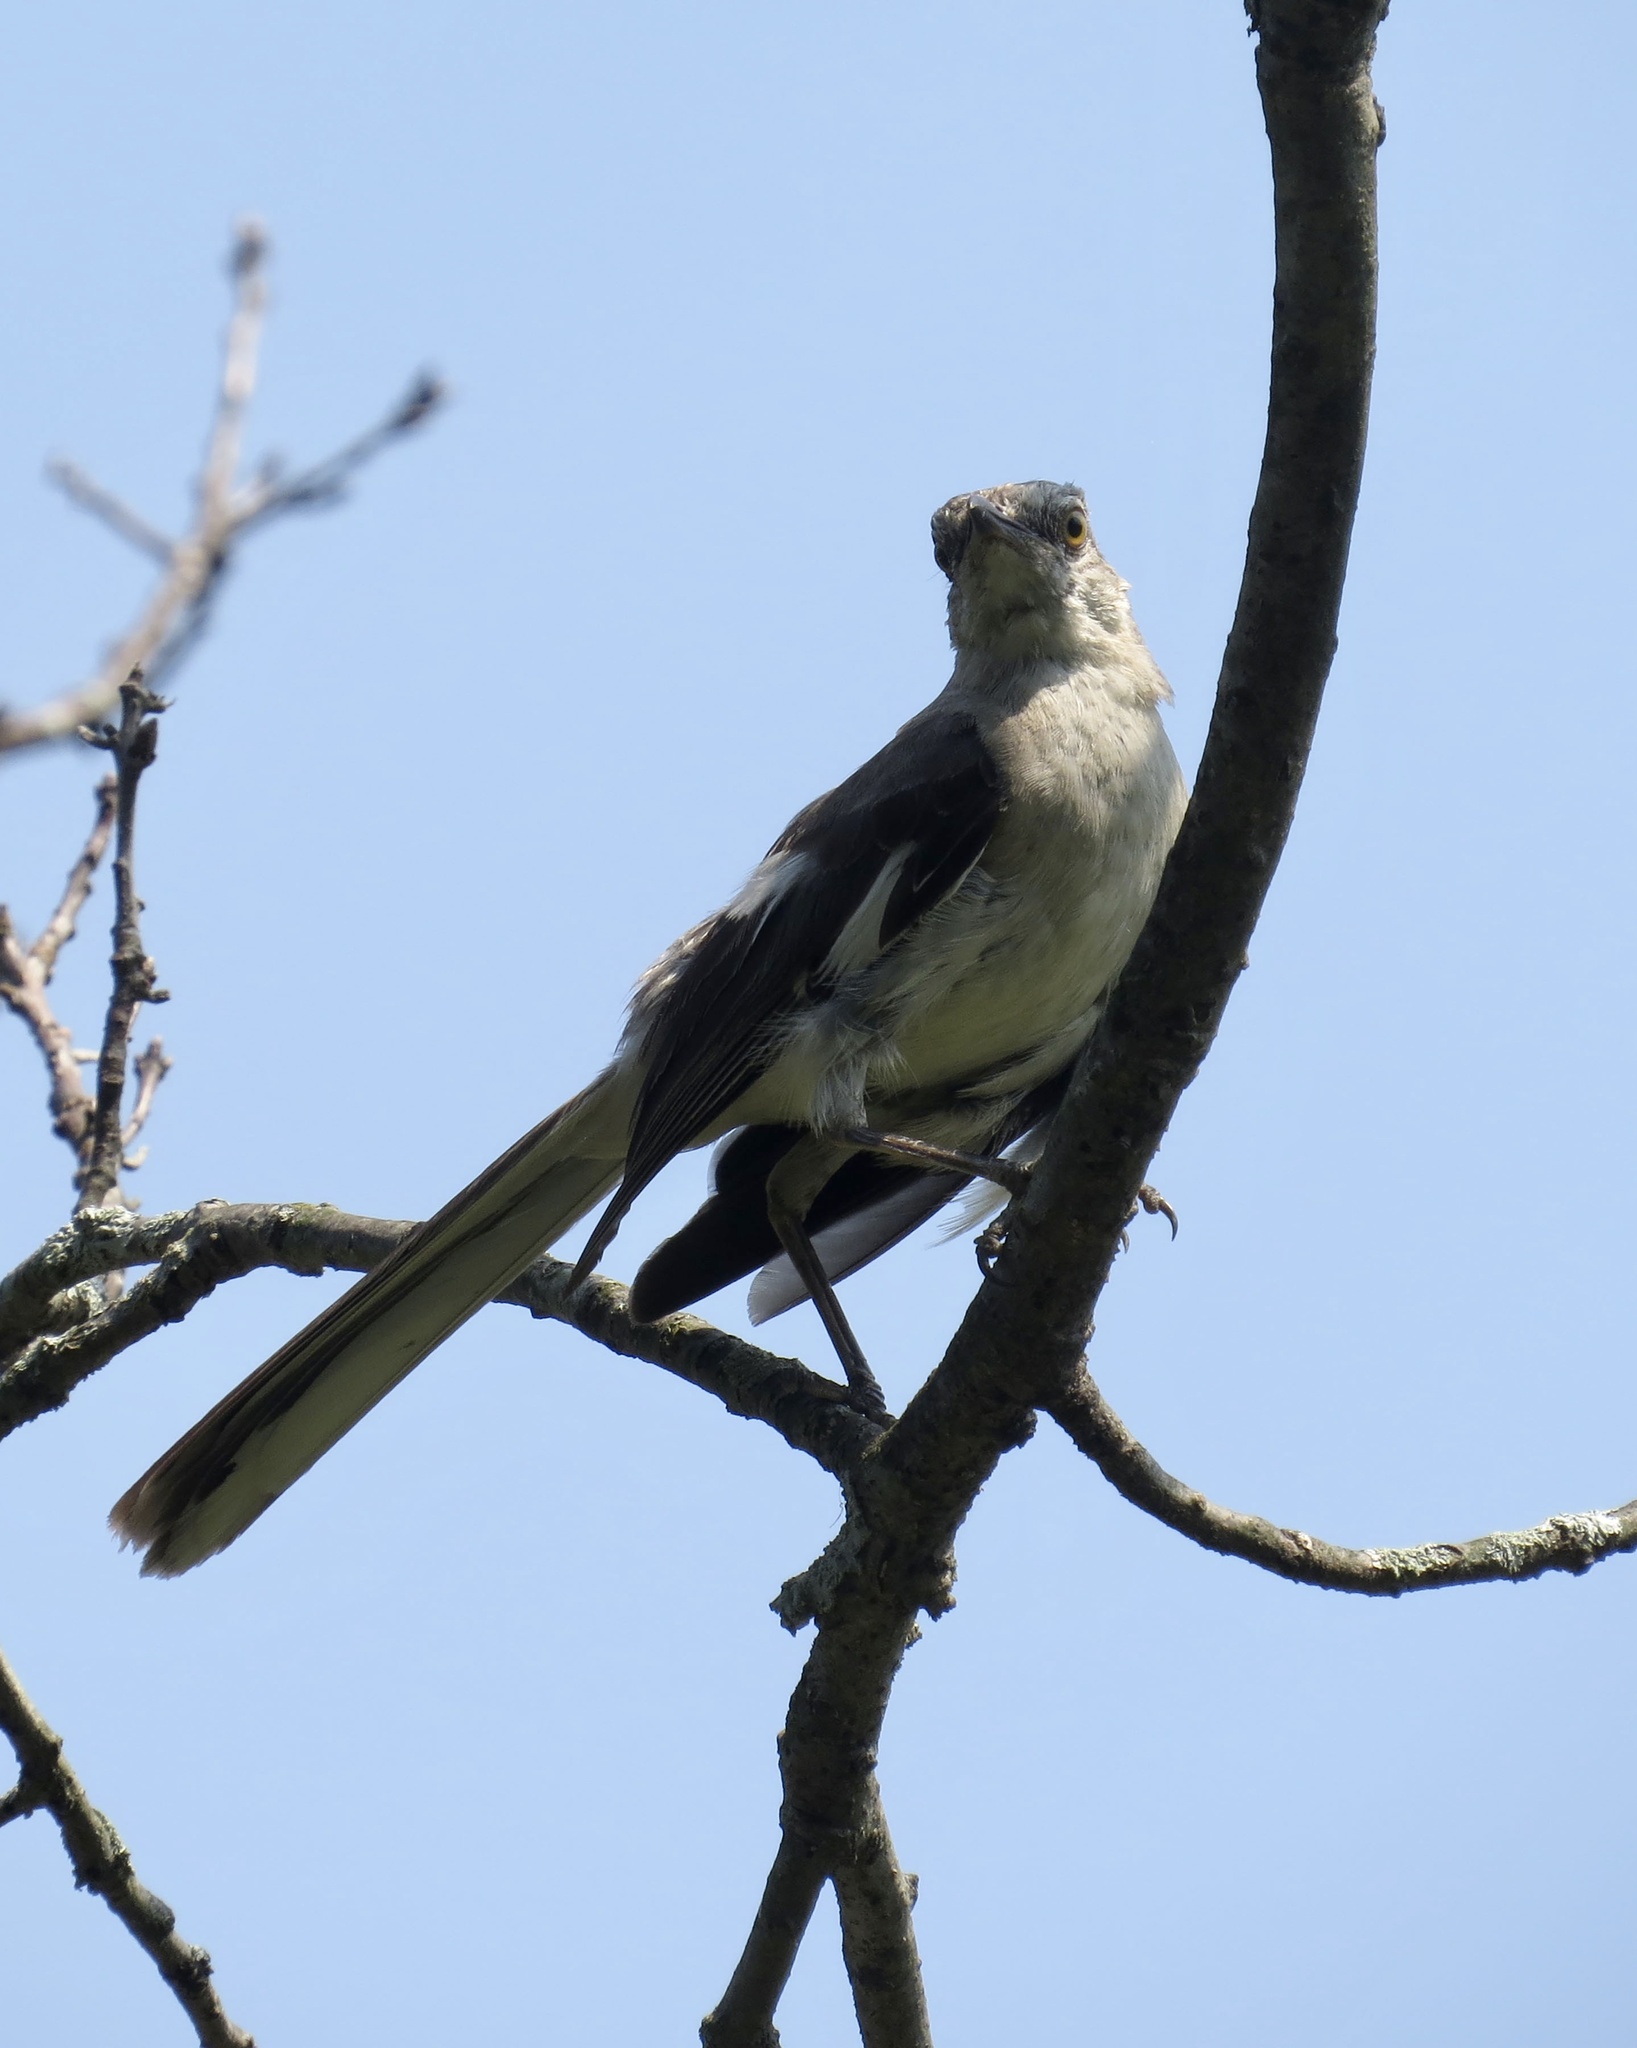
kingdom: Animalia
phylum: Chordata
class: Aves
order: Passeriformes
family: Mimidae
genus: Mimus
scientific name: Mimus polyglottos
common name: Northern mockingbird
